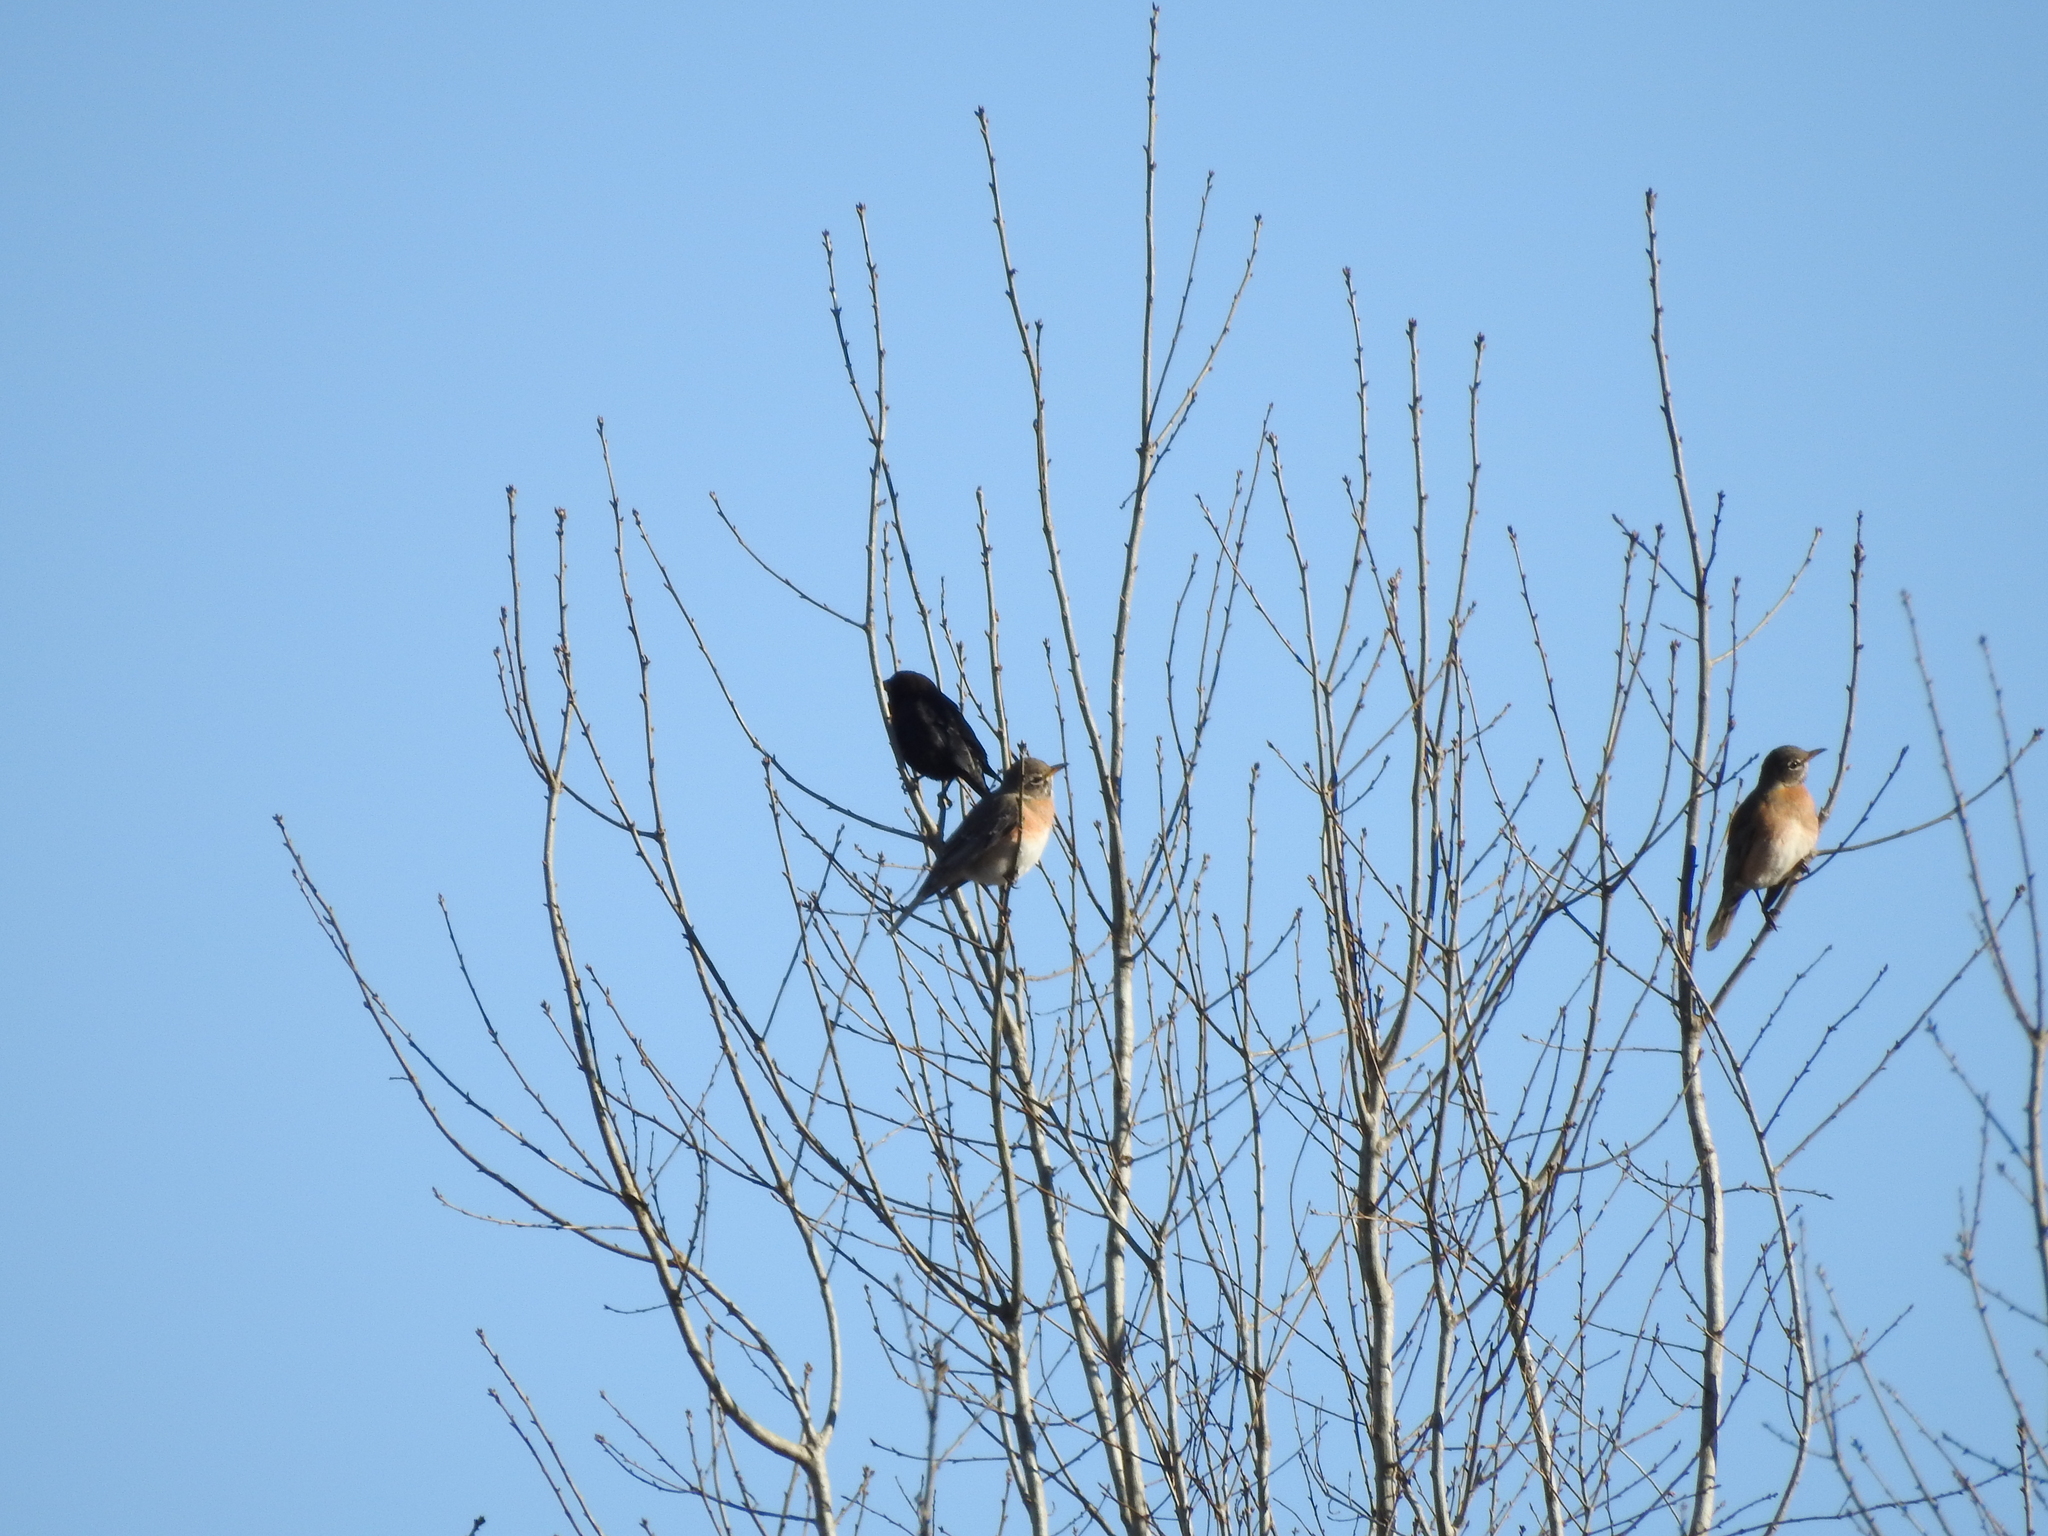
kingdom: Animalia
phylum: Chordata
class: Aves
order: Passeriformes
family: Turdidae
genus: Turdus
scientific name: Turdus migratorius
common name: American robin
